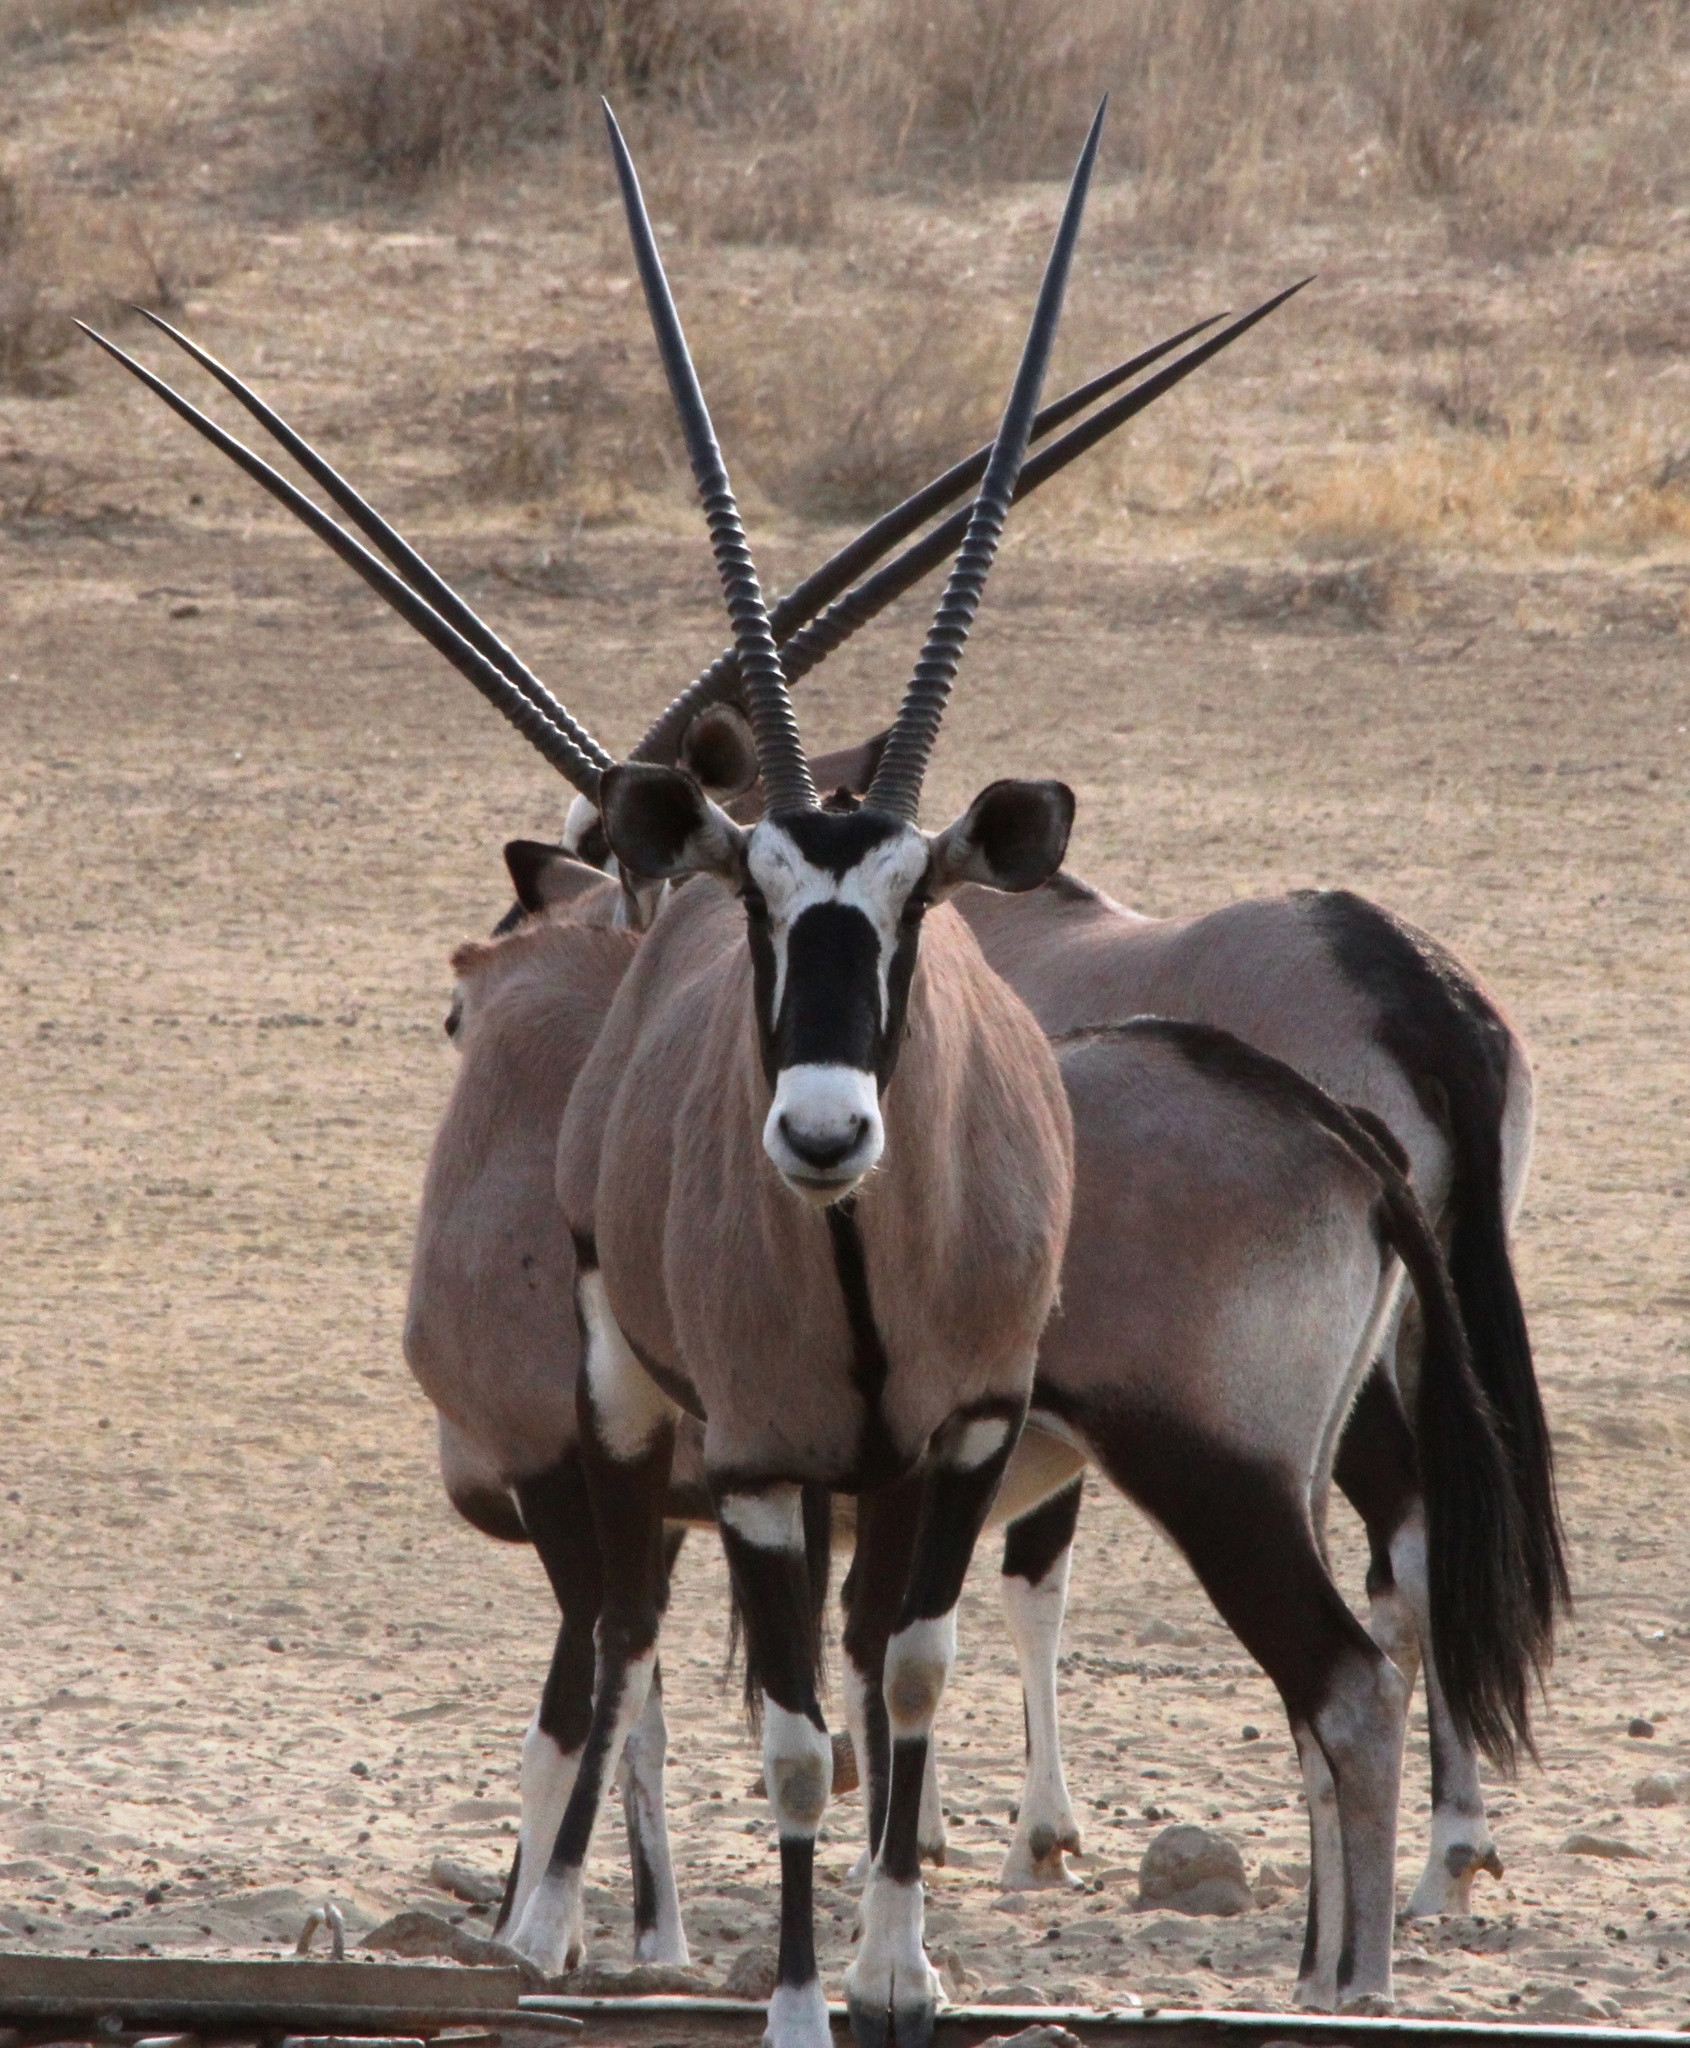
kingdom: Animalia
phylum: Chordata
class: Mammalia
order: Artiodactyla
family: Bovidae
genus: Oryx
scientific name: Oryx gazella
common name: Gemsbok
